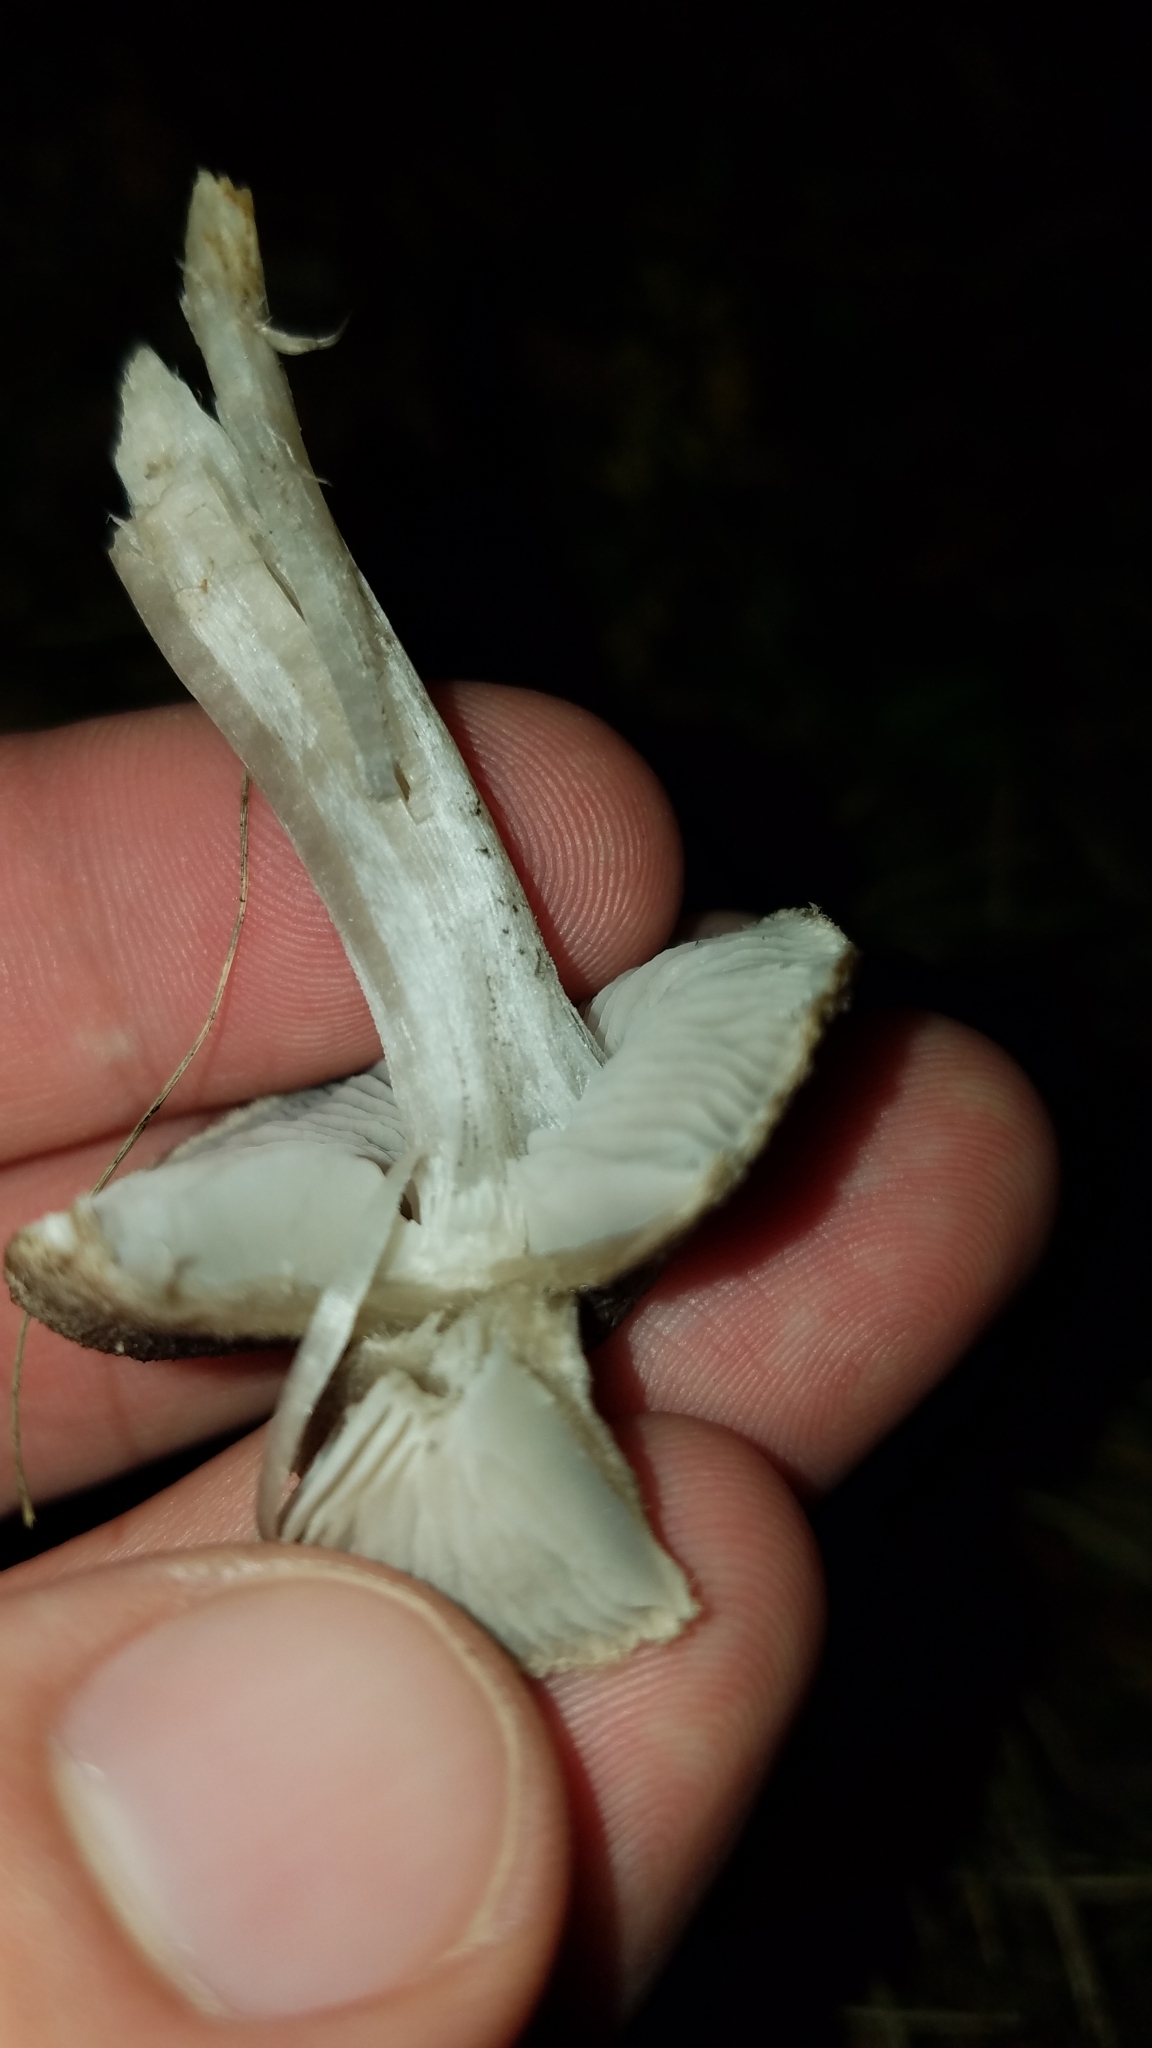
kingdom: Fungi
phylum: Basidiomycota
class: Agaricomycetes
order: Agaricales
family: Tricholomataceae
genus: Tricholoma
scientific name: Tricholoma terreum
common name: Grey knight
